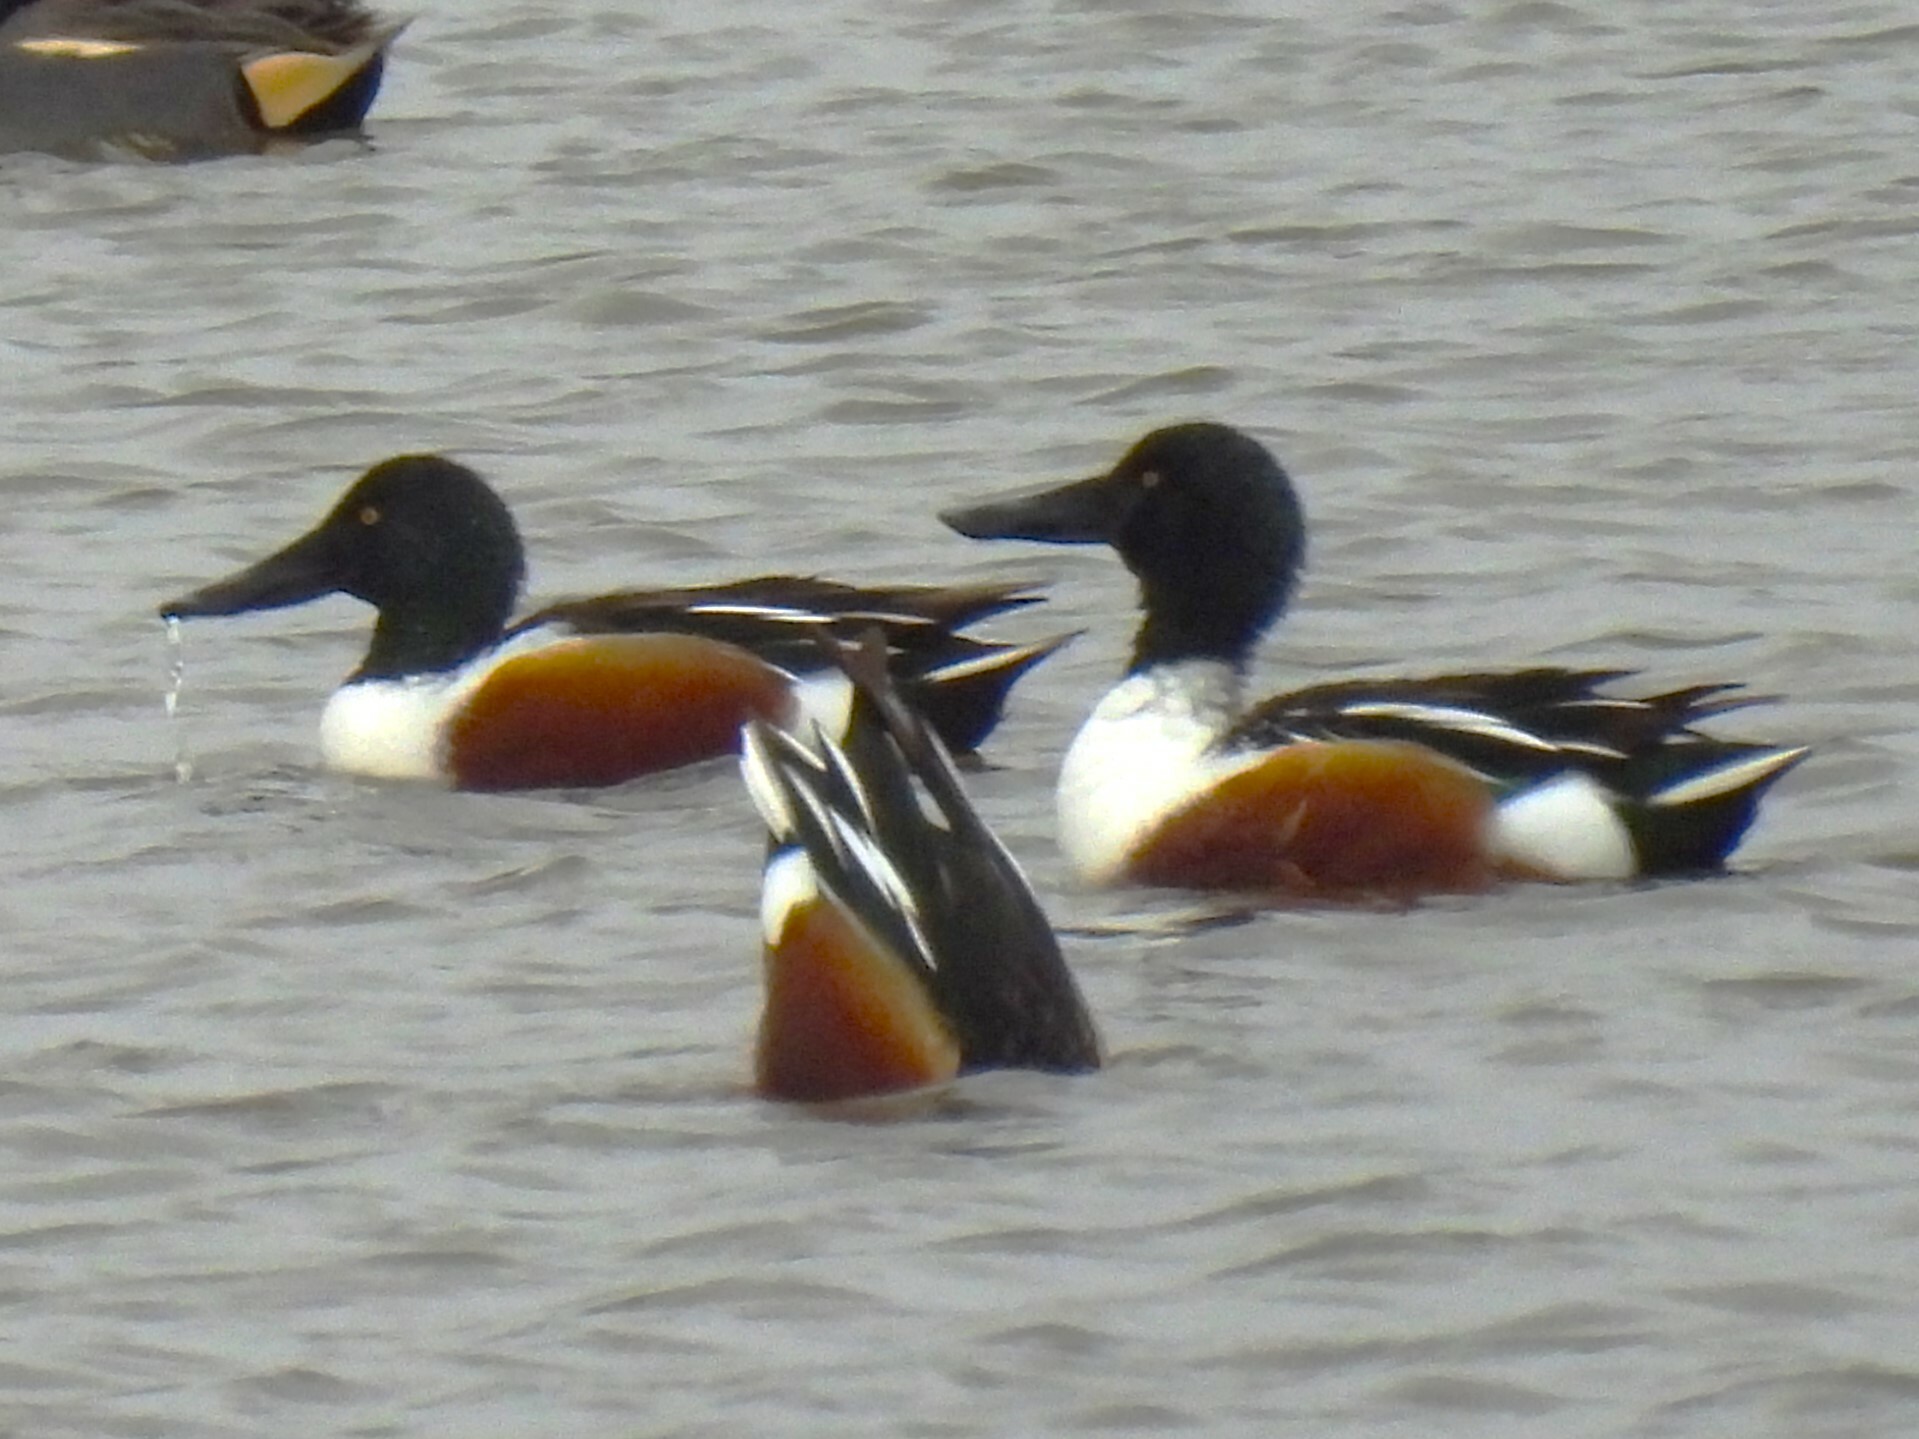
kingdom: Animalia
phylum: Chordata
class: Aves
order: Anseriformes
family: Anatidae
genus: Spatula
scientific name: Spatula clypeata
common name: Northern shoveler
